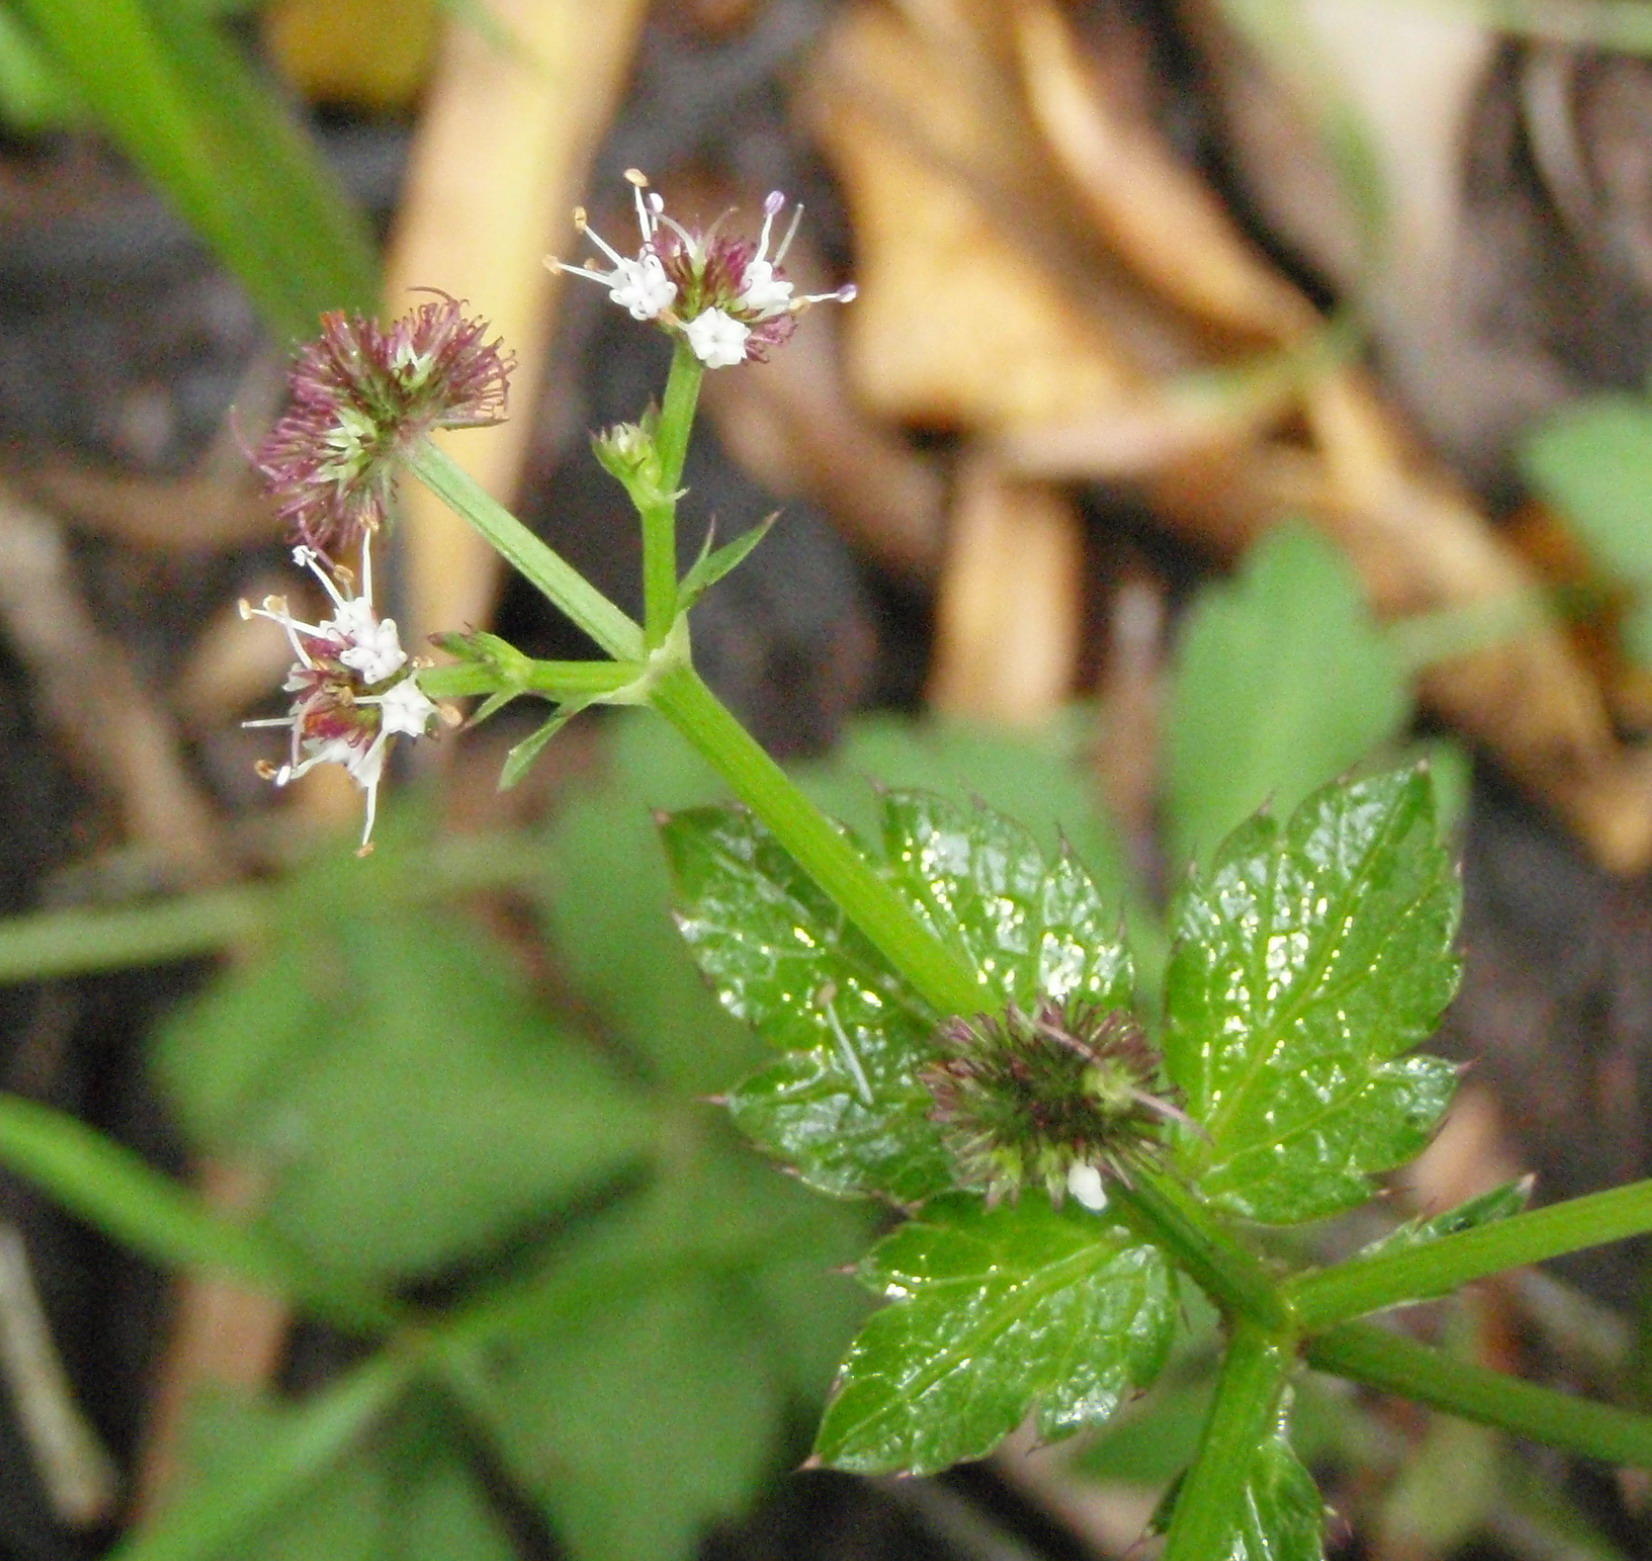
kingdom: Plantae
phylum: Tracheophyta
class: Magnoliopsida
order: Apiales
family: Apiaceae
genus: Sanicula
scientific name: Sanicula elata
